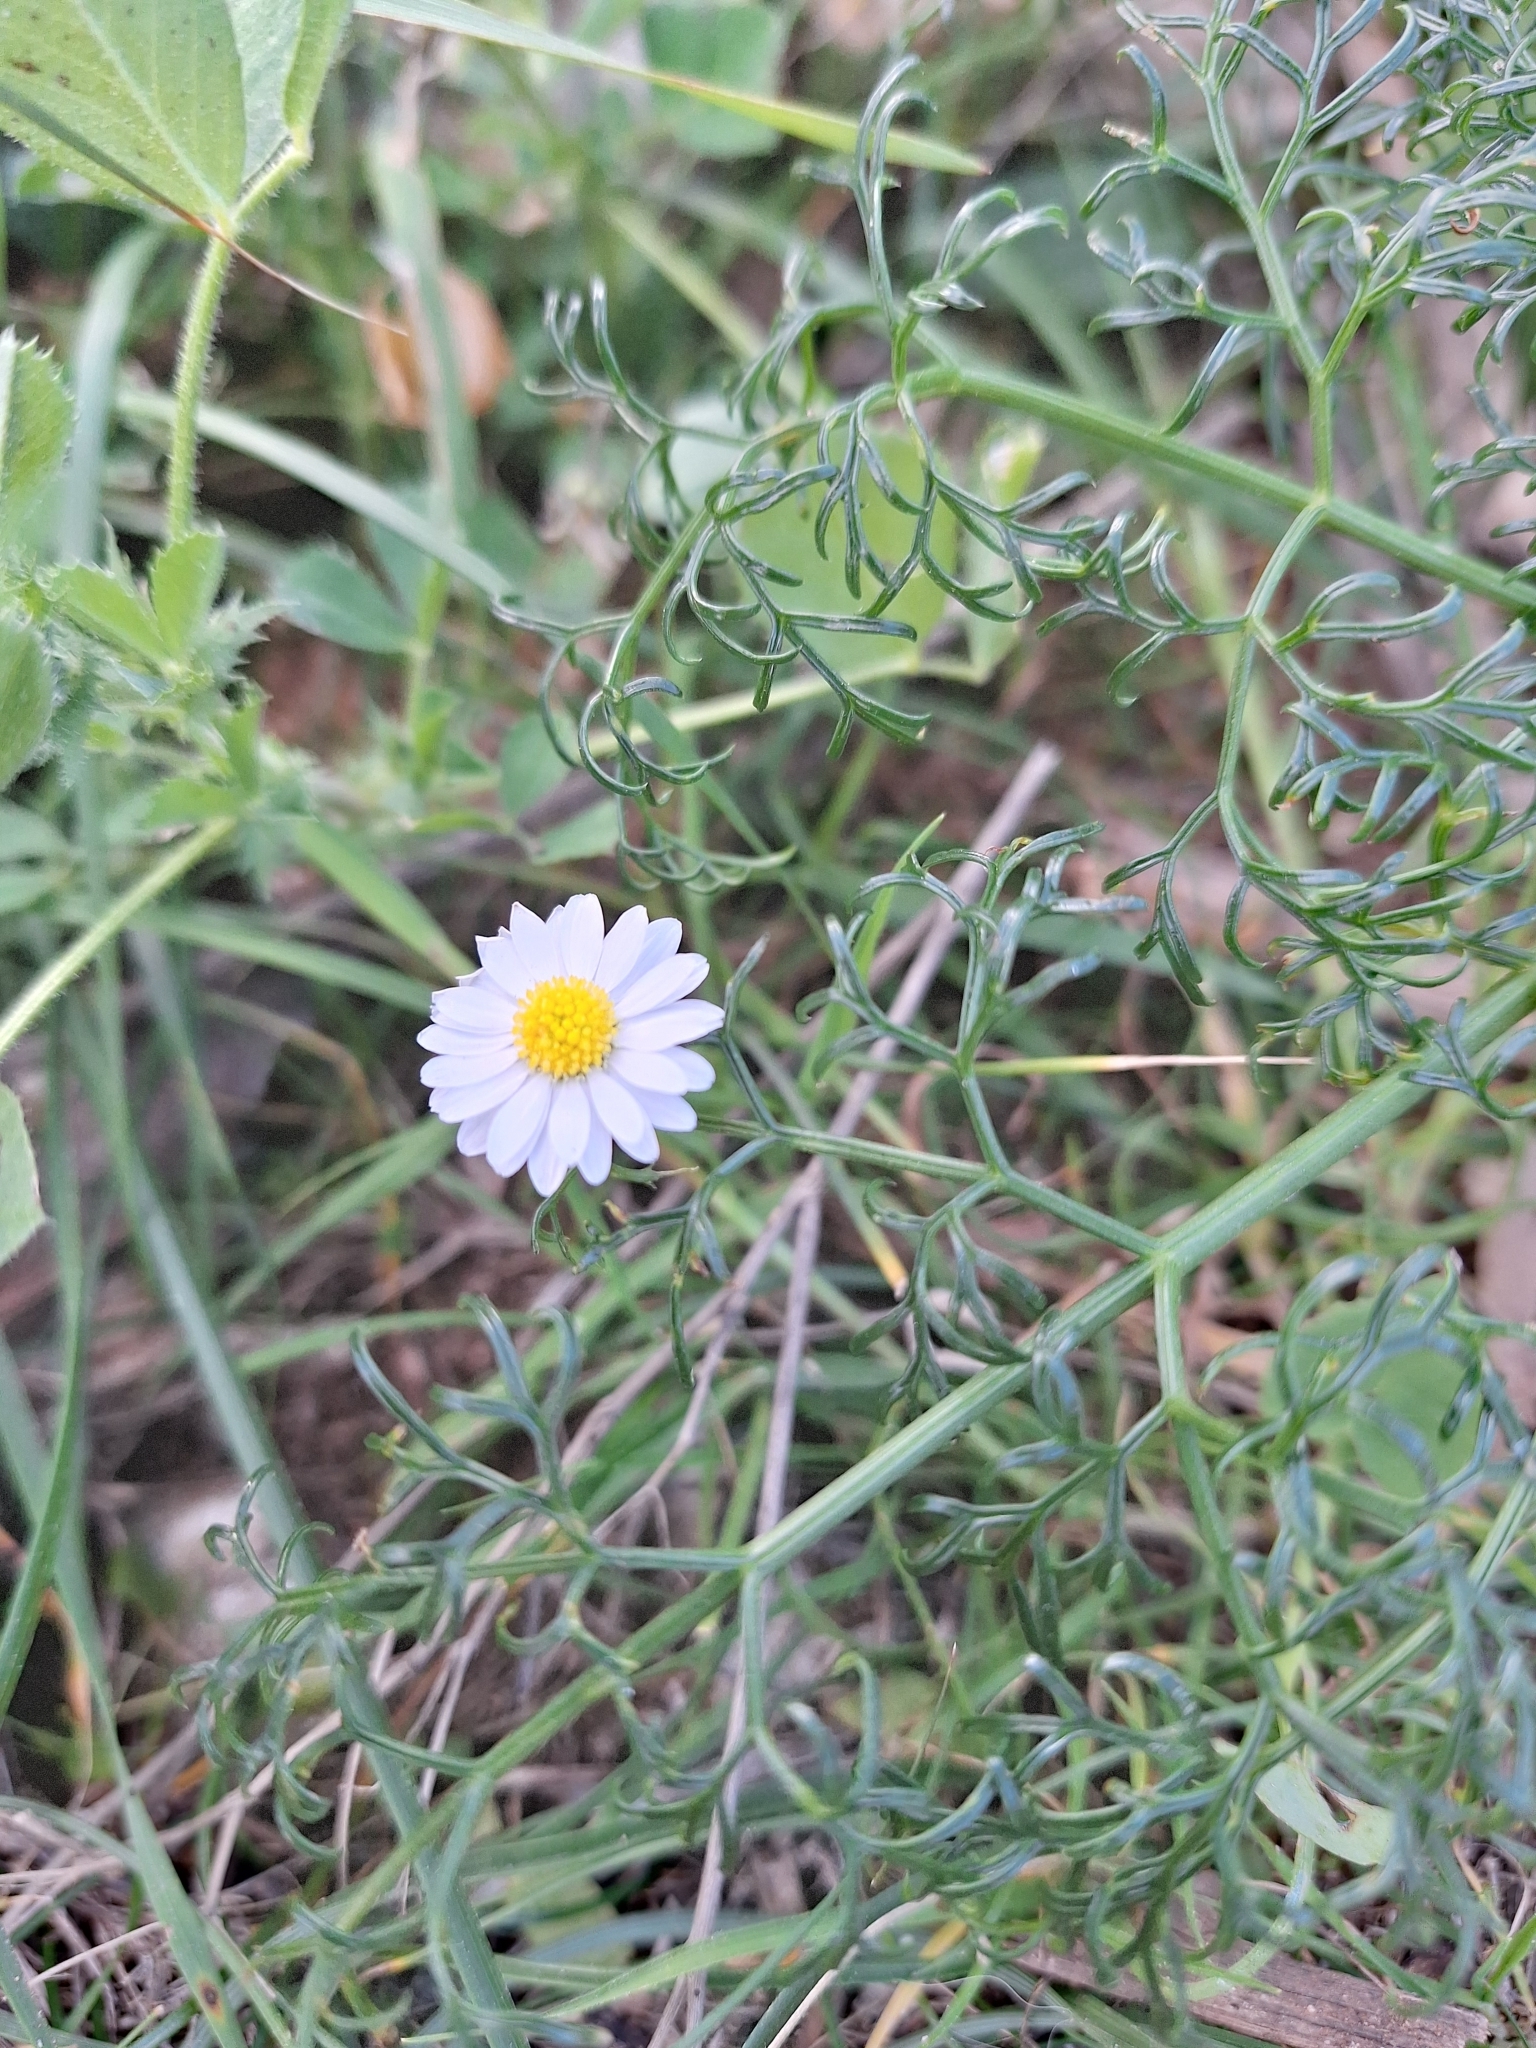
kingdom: Plantae
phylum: Tracheophyta
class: Magnoliopsida
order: Asterales
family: Asteraceae
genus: Bellis
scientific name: Bellis annua
